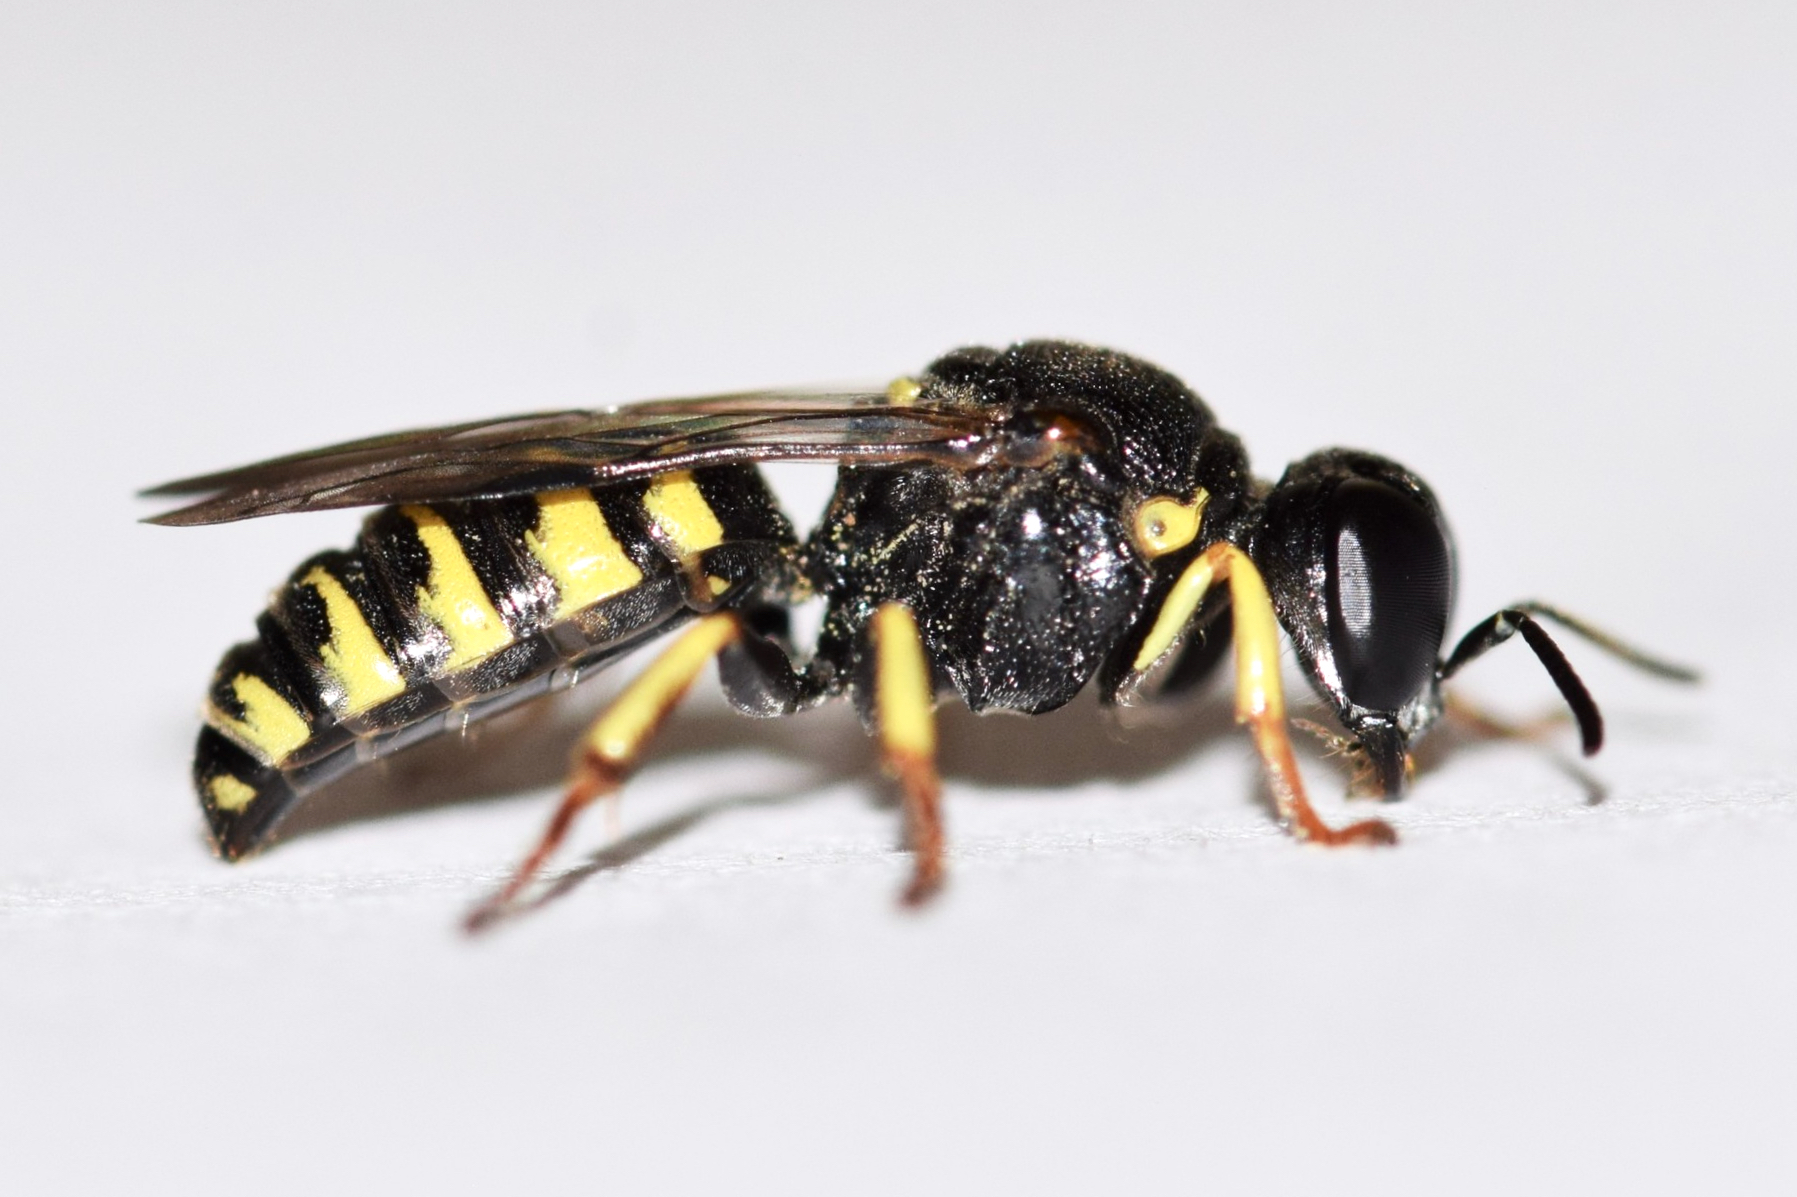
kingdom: Animalia
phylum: Arthropoda
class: Insecta
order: Hymenoptera
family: Crabronidae
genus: Anacrabro
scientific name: Anacrabro ocellatus
